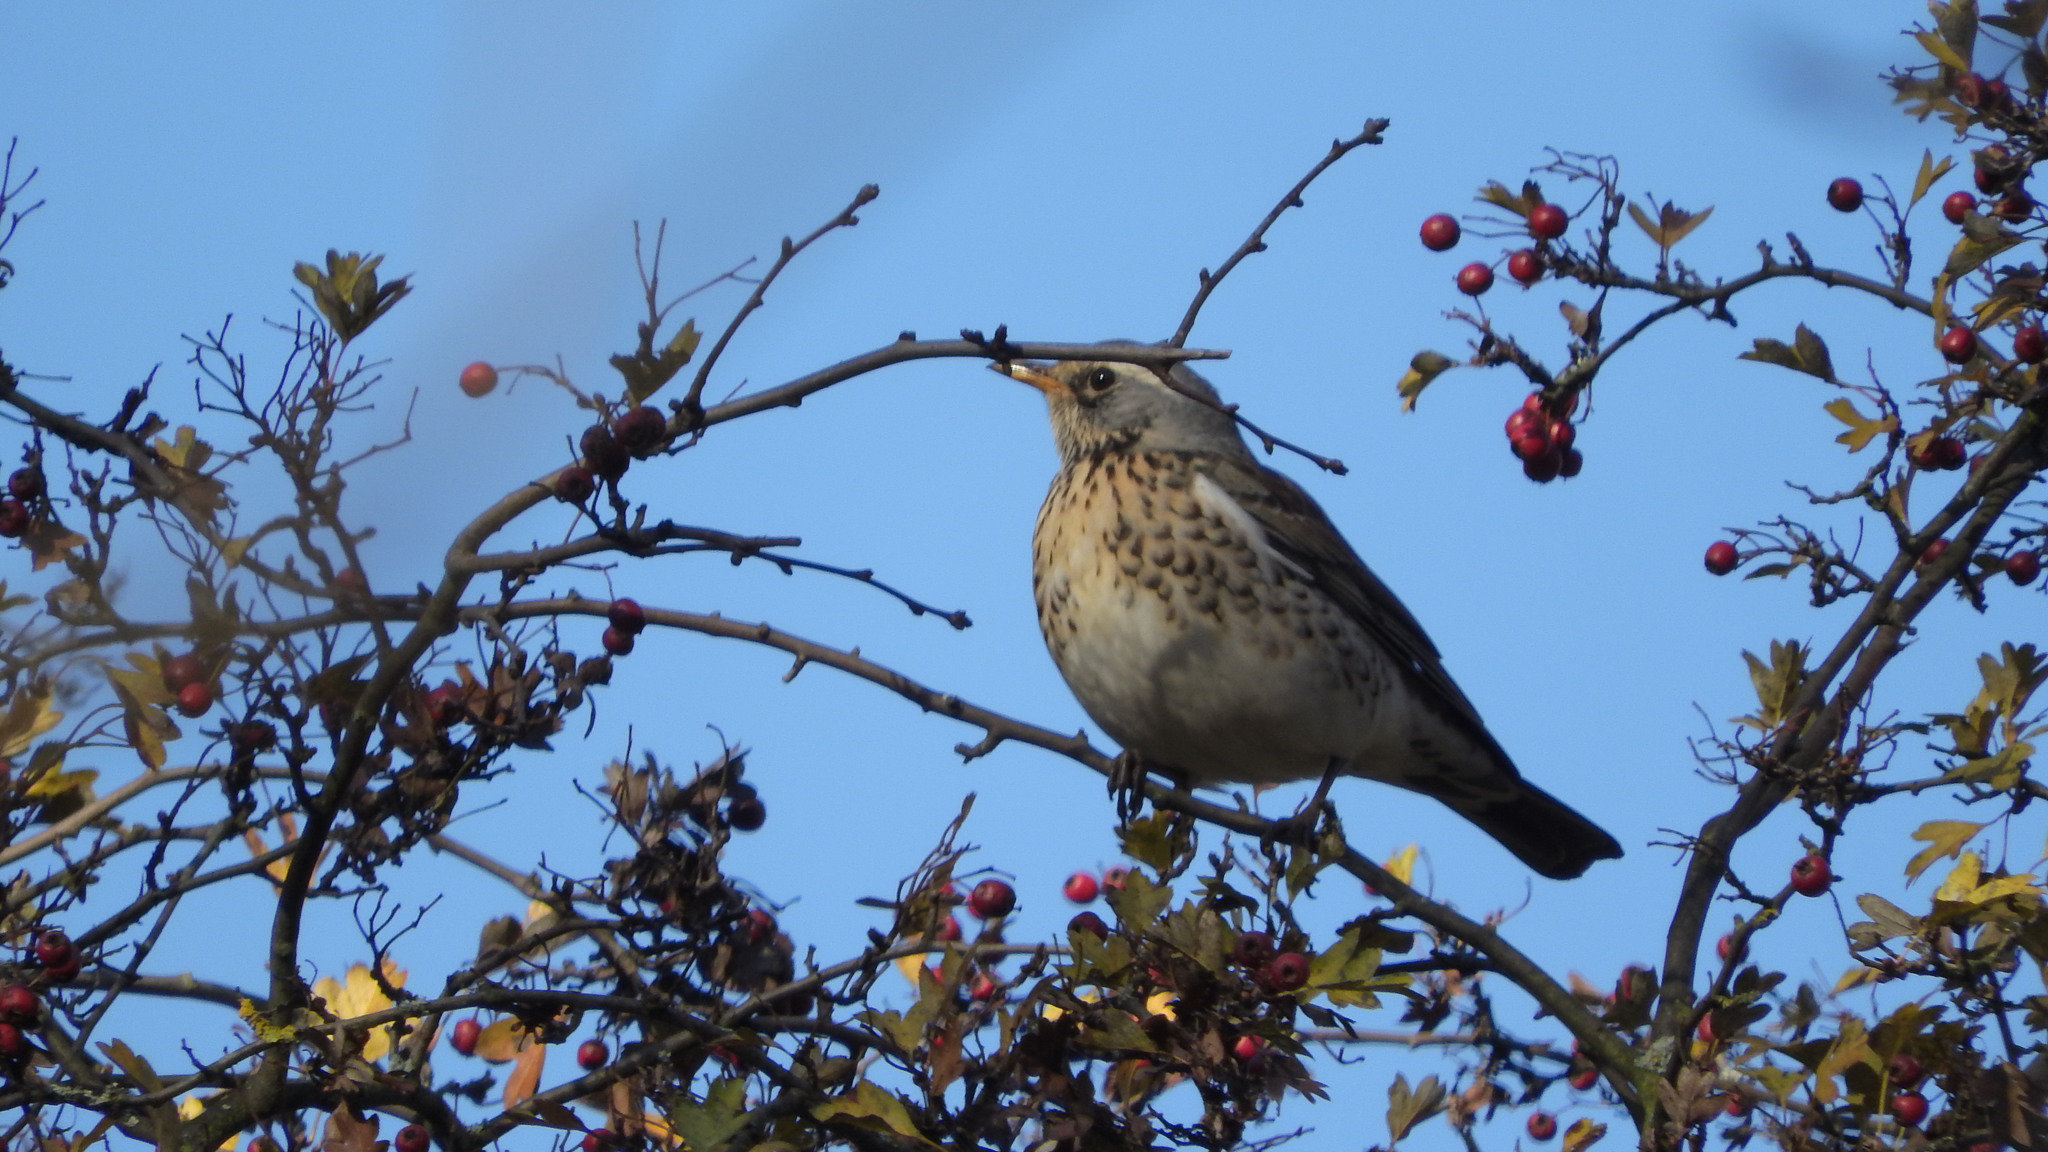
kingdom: Animalia
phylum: Chordata
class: Aves
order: Passeriformes
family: Turdidae
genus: Turdus
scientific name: Turdus pilaris
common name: Fieldfare
